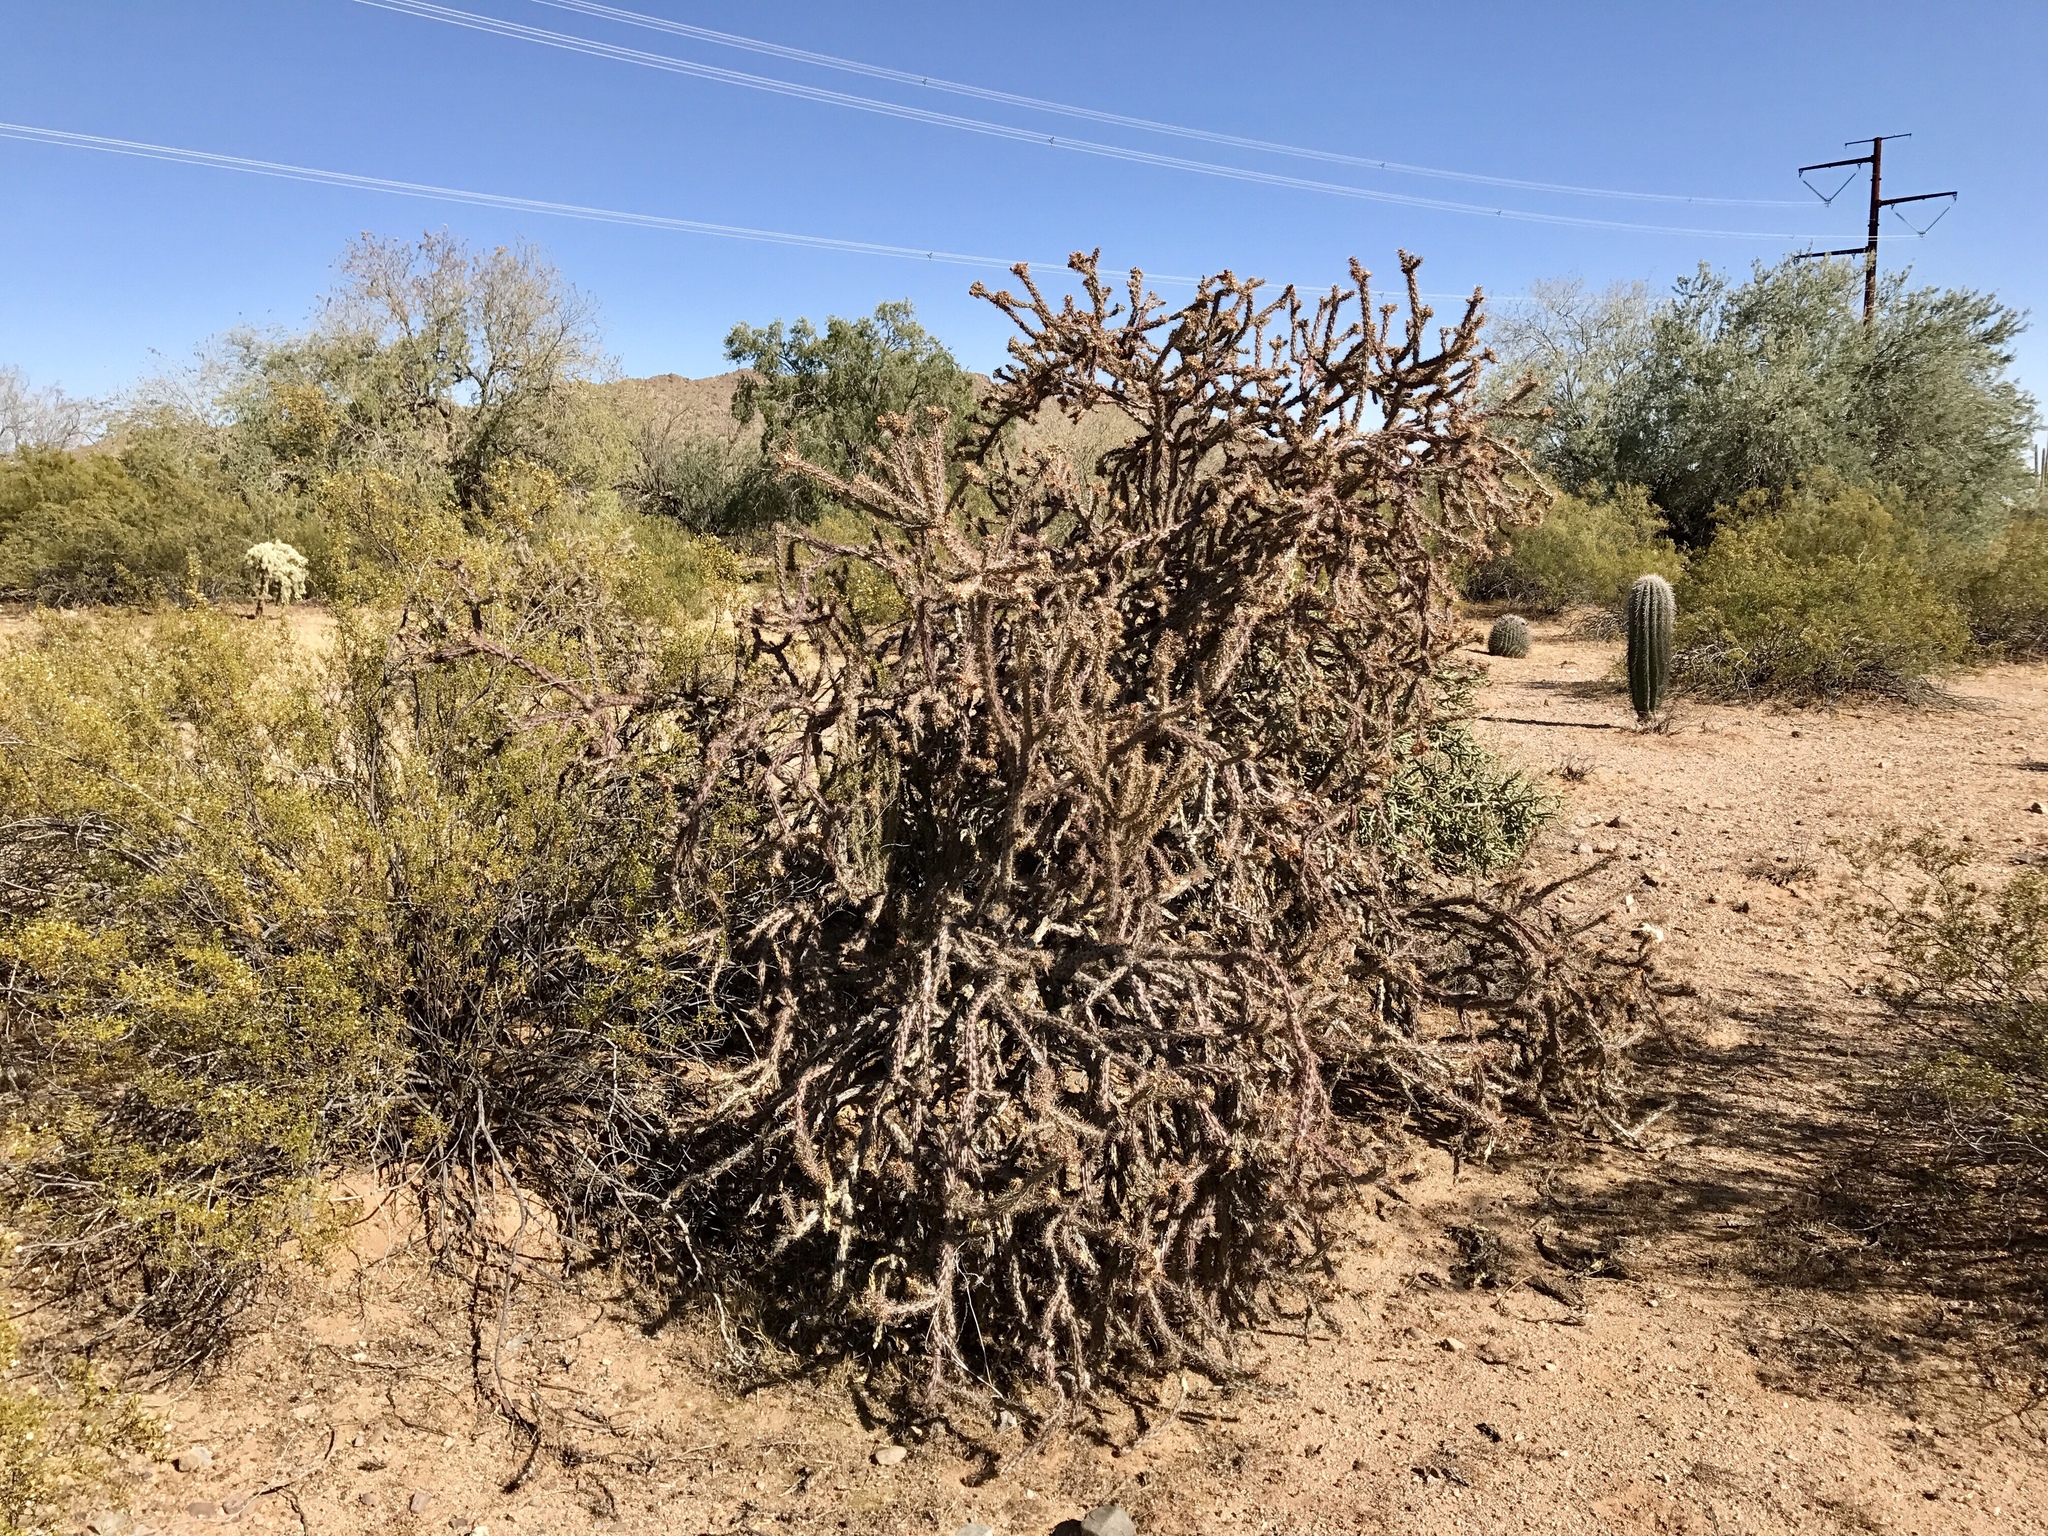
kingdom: Plantae
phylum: Tracheophyta
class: Magnoliopsida
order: Caryophyllales
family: Cactaceae
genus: Cylindropuntia
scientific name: Cylindropuntia thurberi
